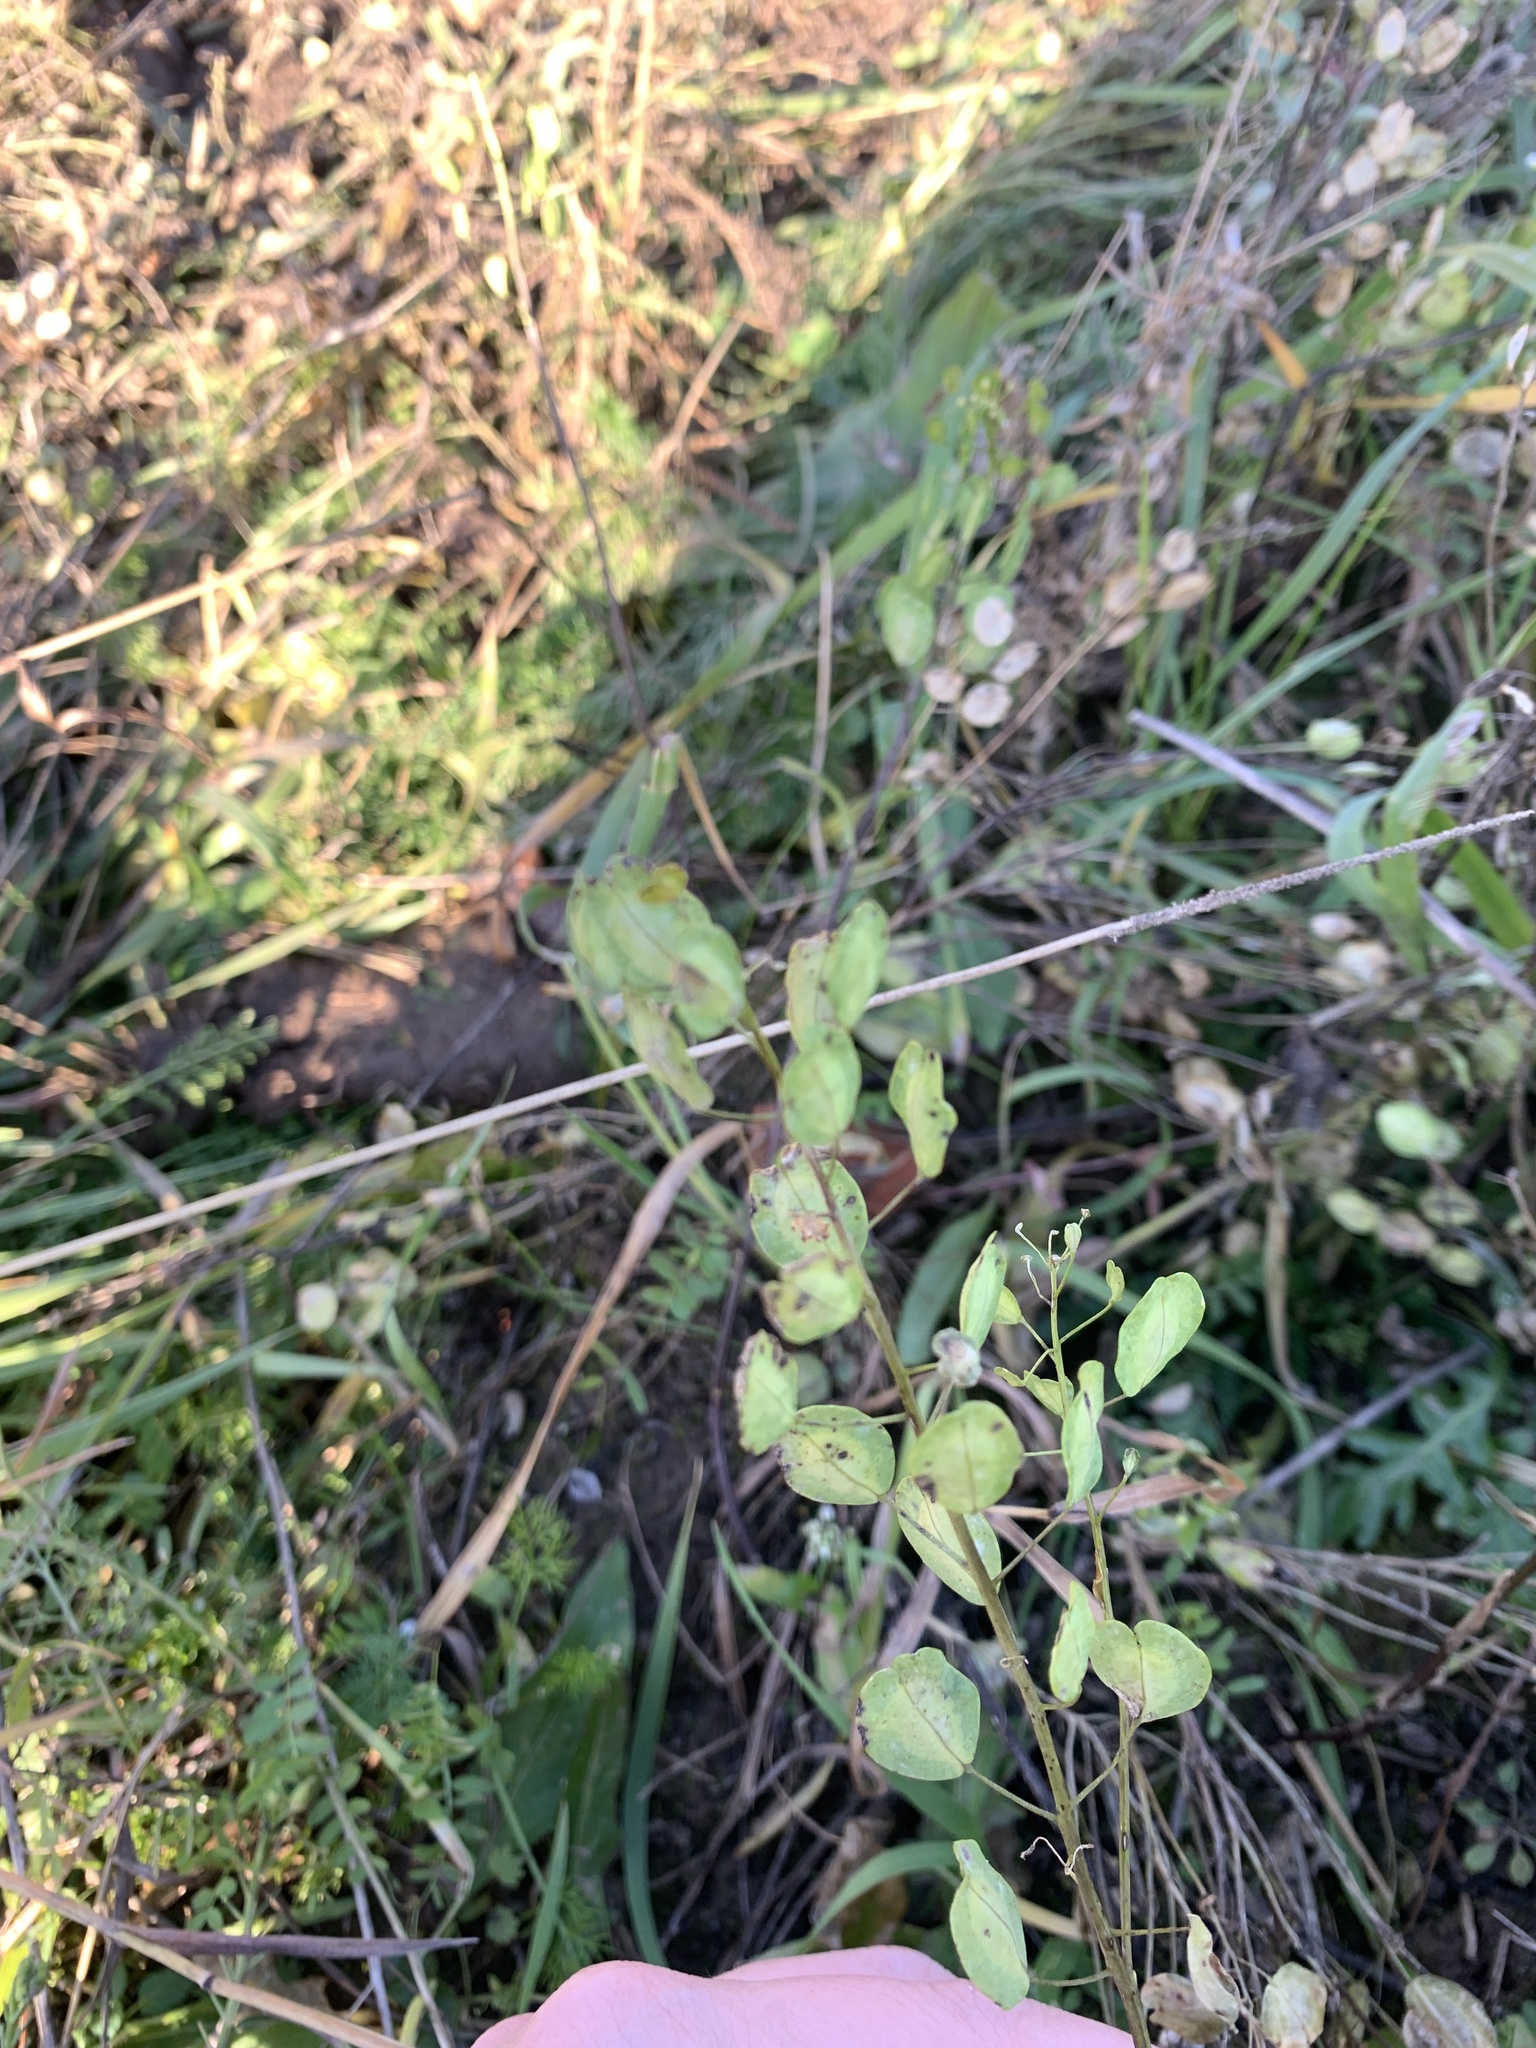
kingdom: Plantae
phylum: Tracheophyta
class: Magnoliopsida
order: Brassicales
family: Brassicaceae
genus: Thlaspi
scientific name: Thlaspi arvense
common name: Field pennycress
